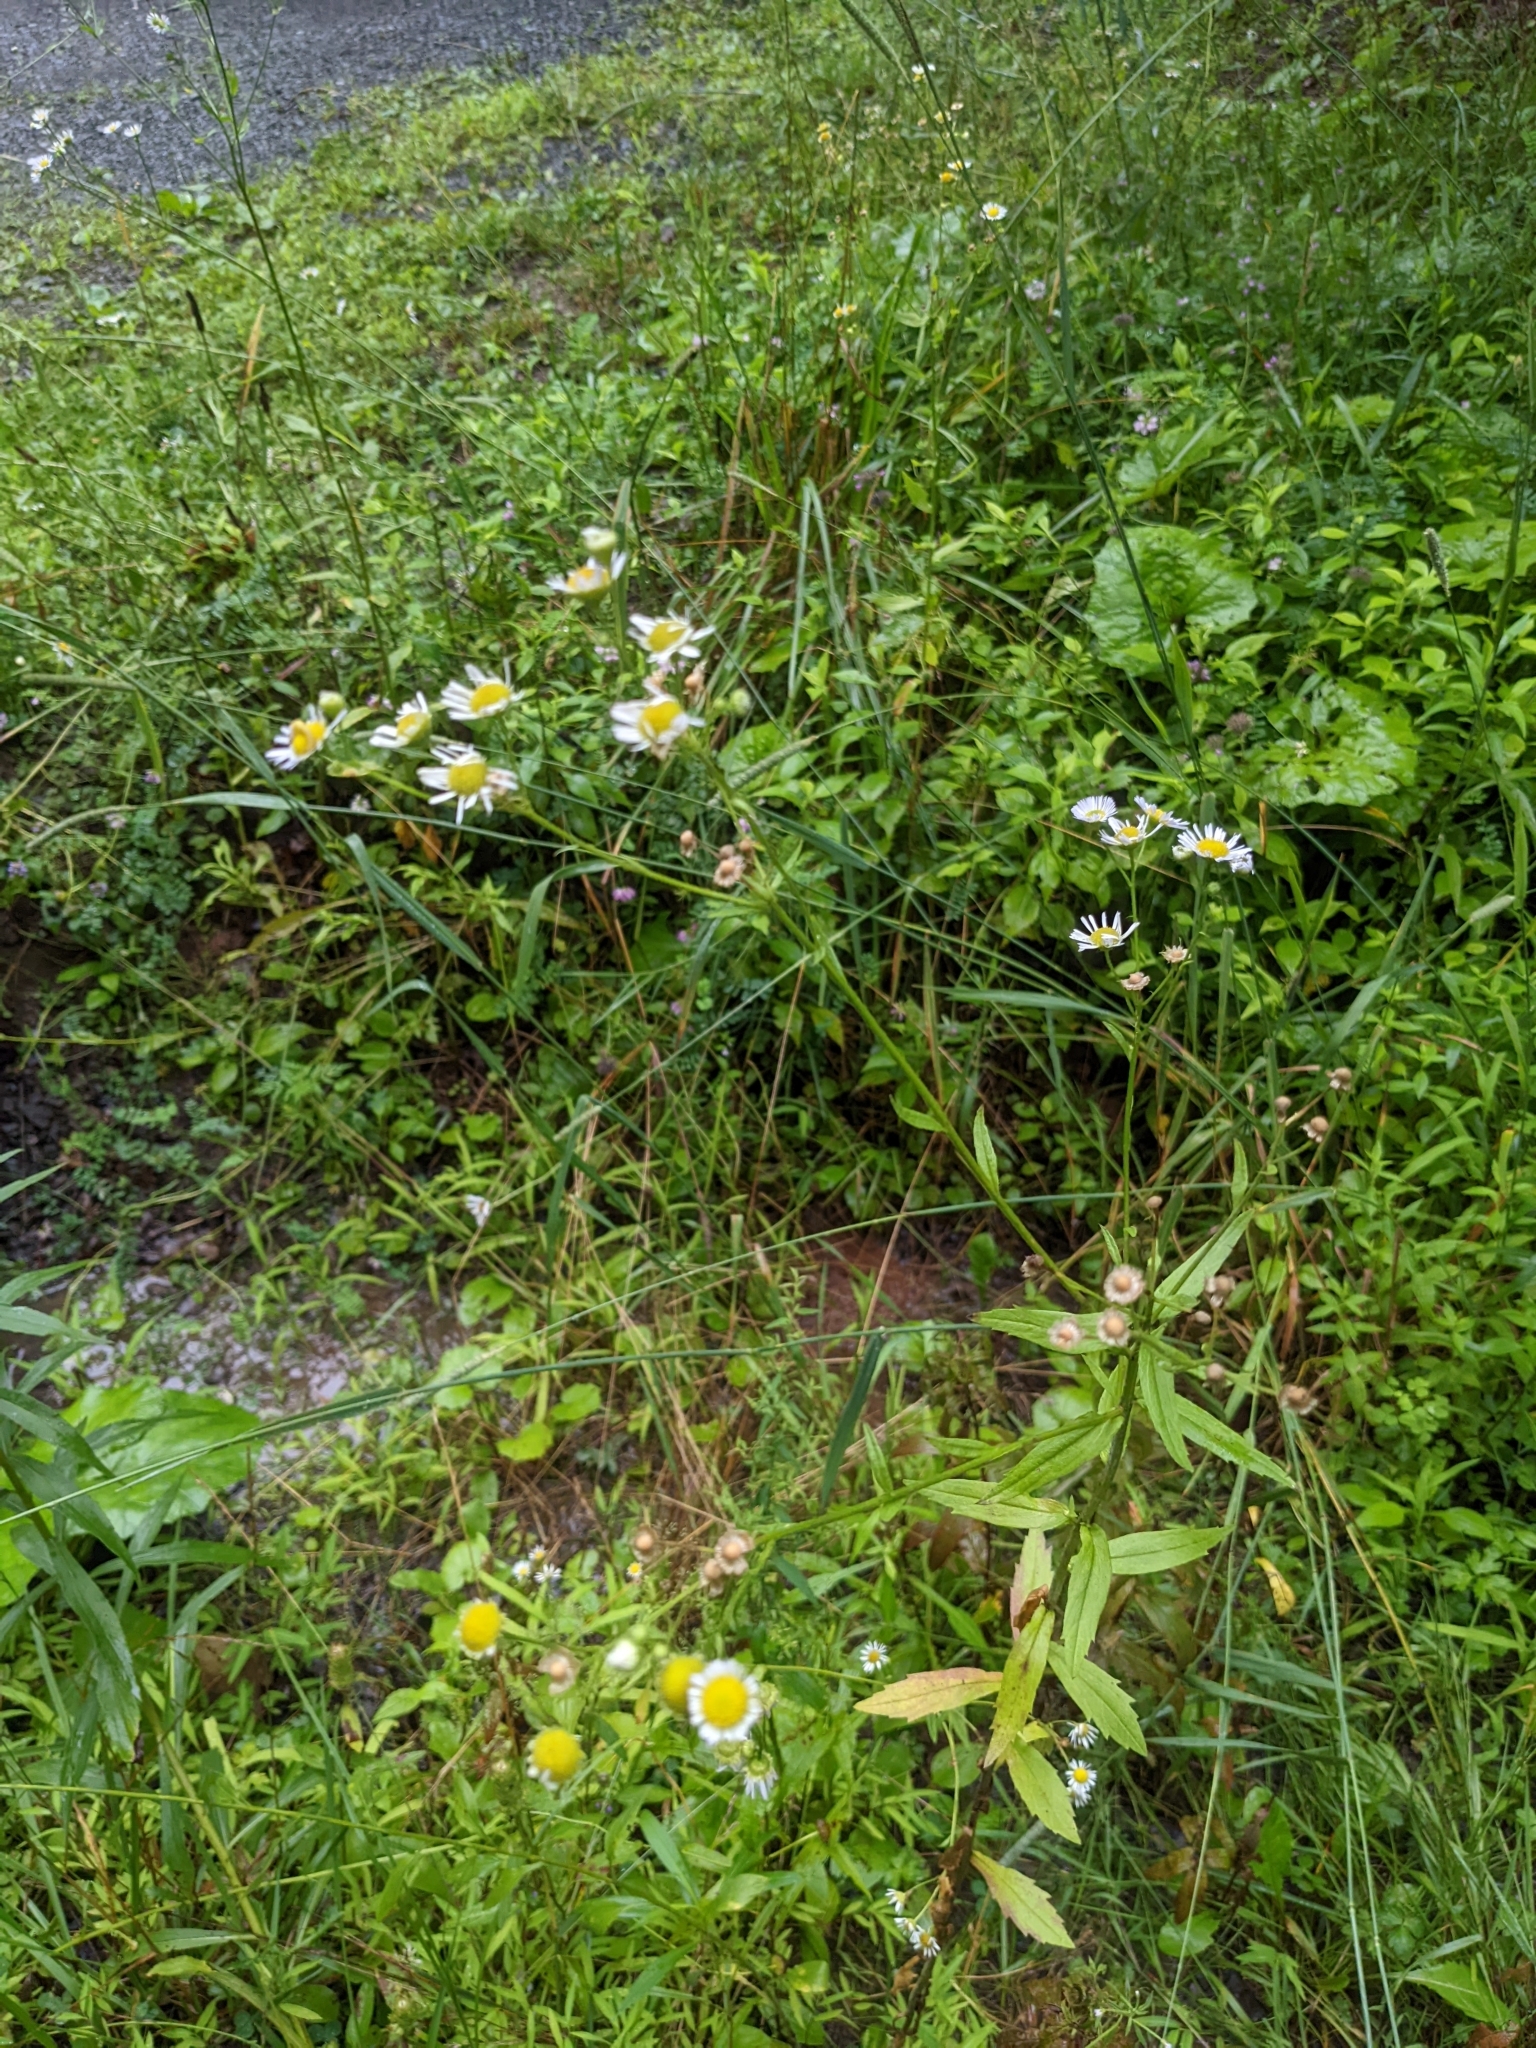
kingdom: Plantae
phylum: Tracheophyta
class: Magnoliopsida
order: Asterales
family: Asteraceae
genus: Erigeron
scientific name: Erigeron strigosus
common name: Common eastern fleabane
